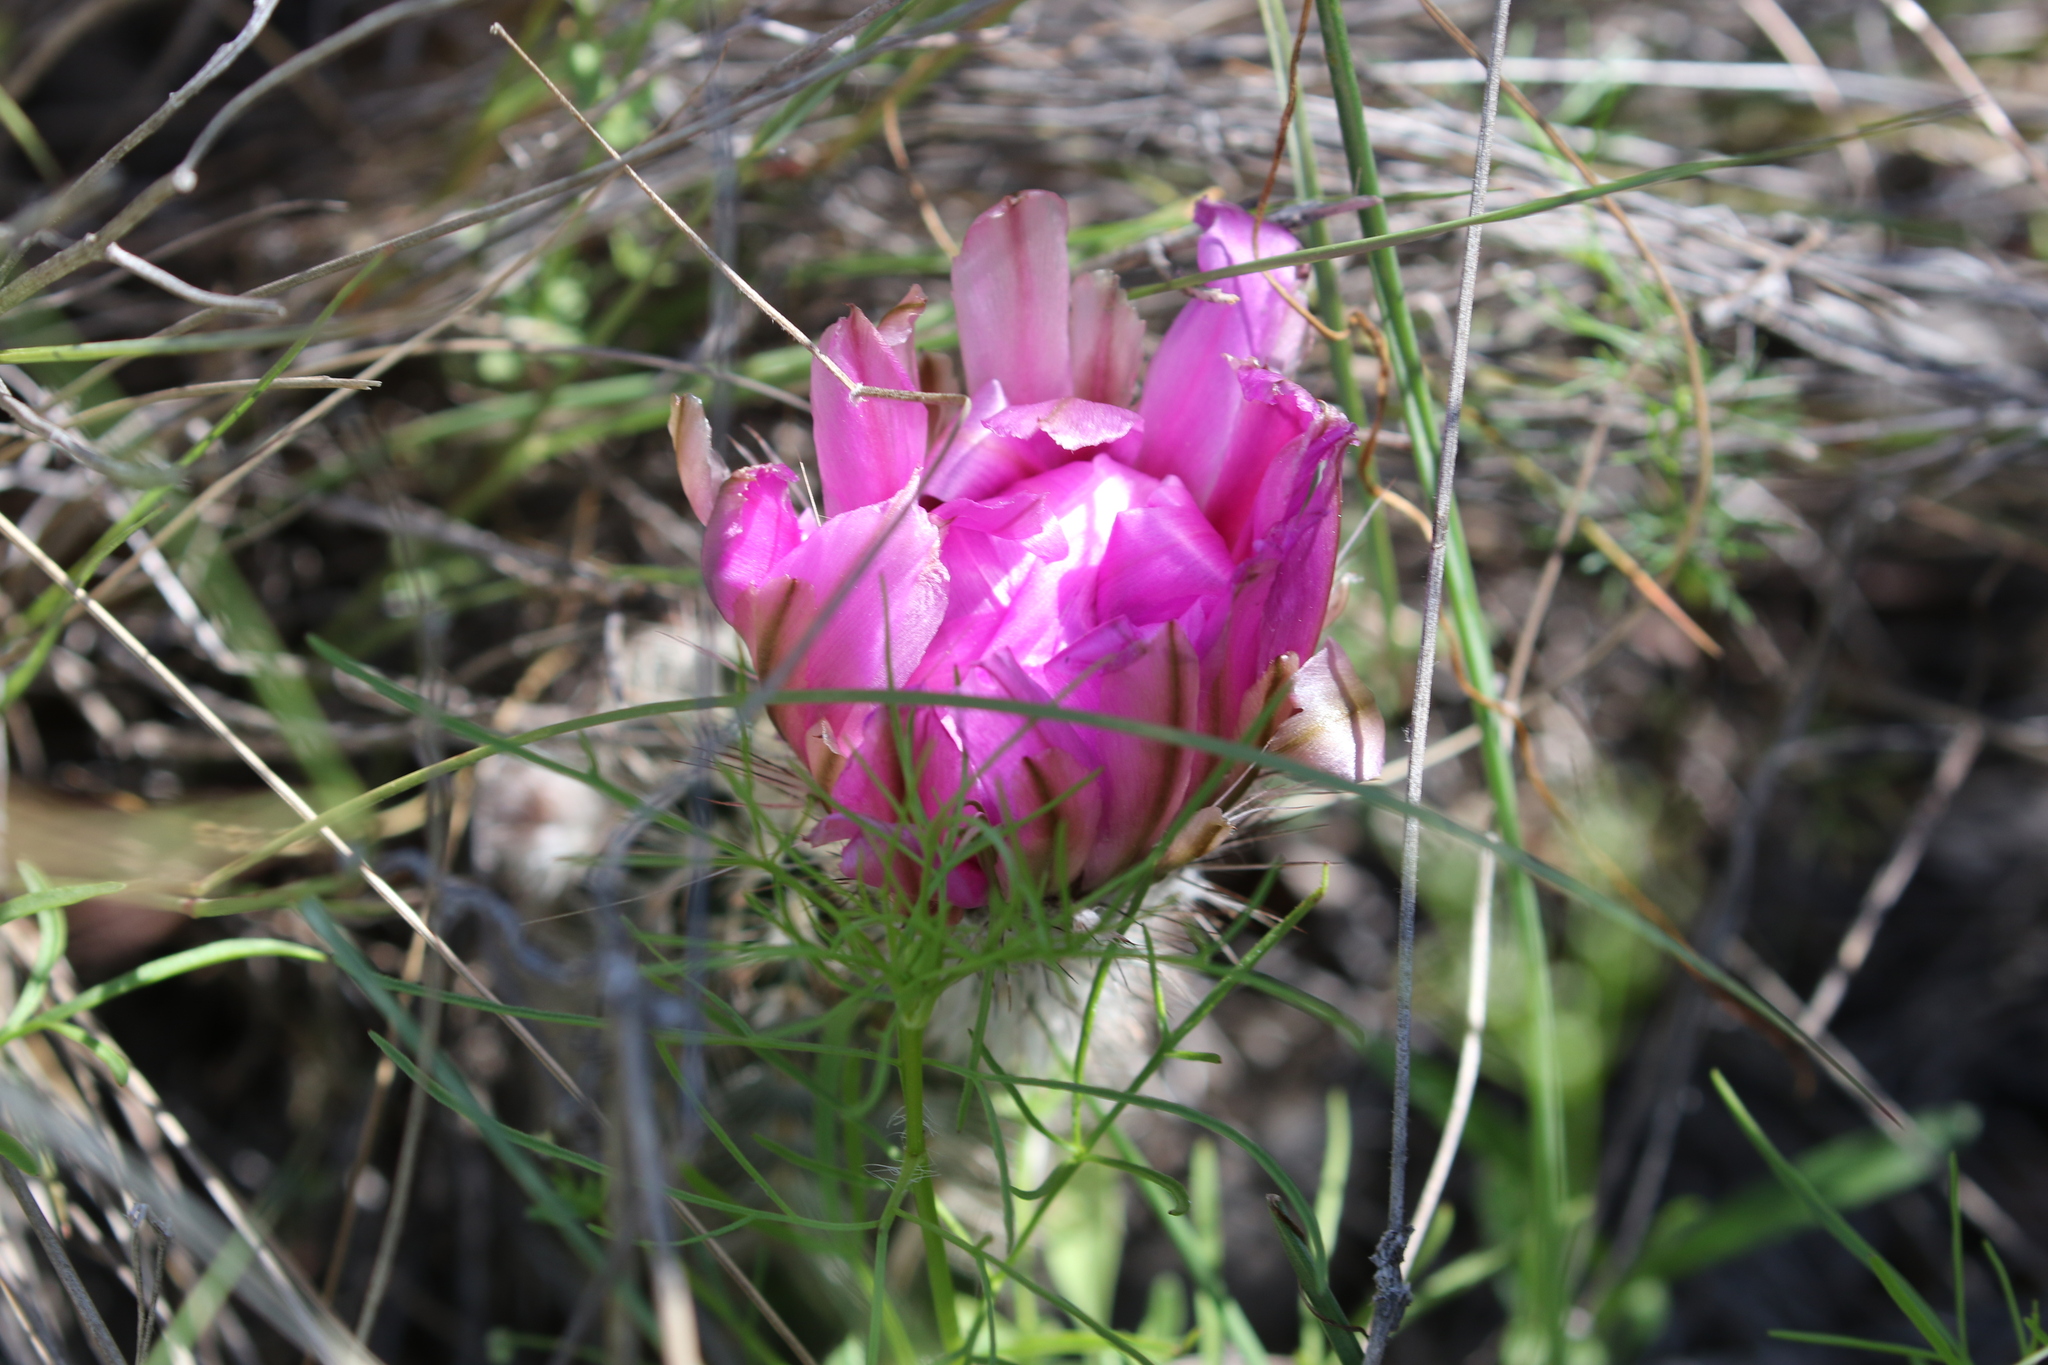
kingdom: Plantae
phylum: Tracheophyta
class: Magnoliopsida
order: Caryophyllales
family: Cactaceae
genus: Echinocereus
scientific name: Echinocereus reichenbachii
